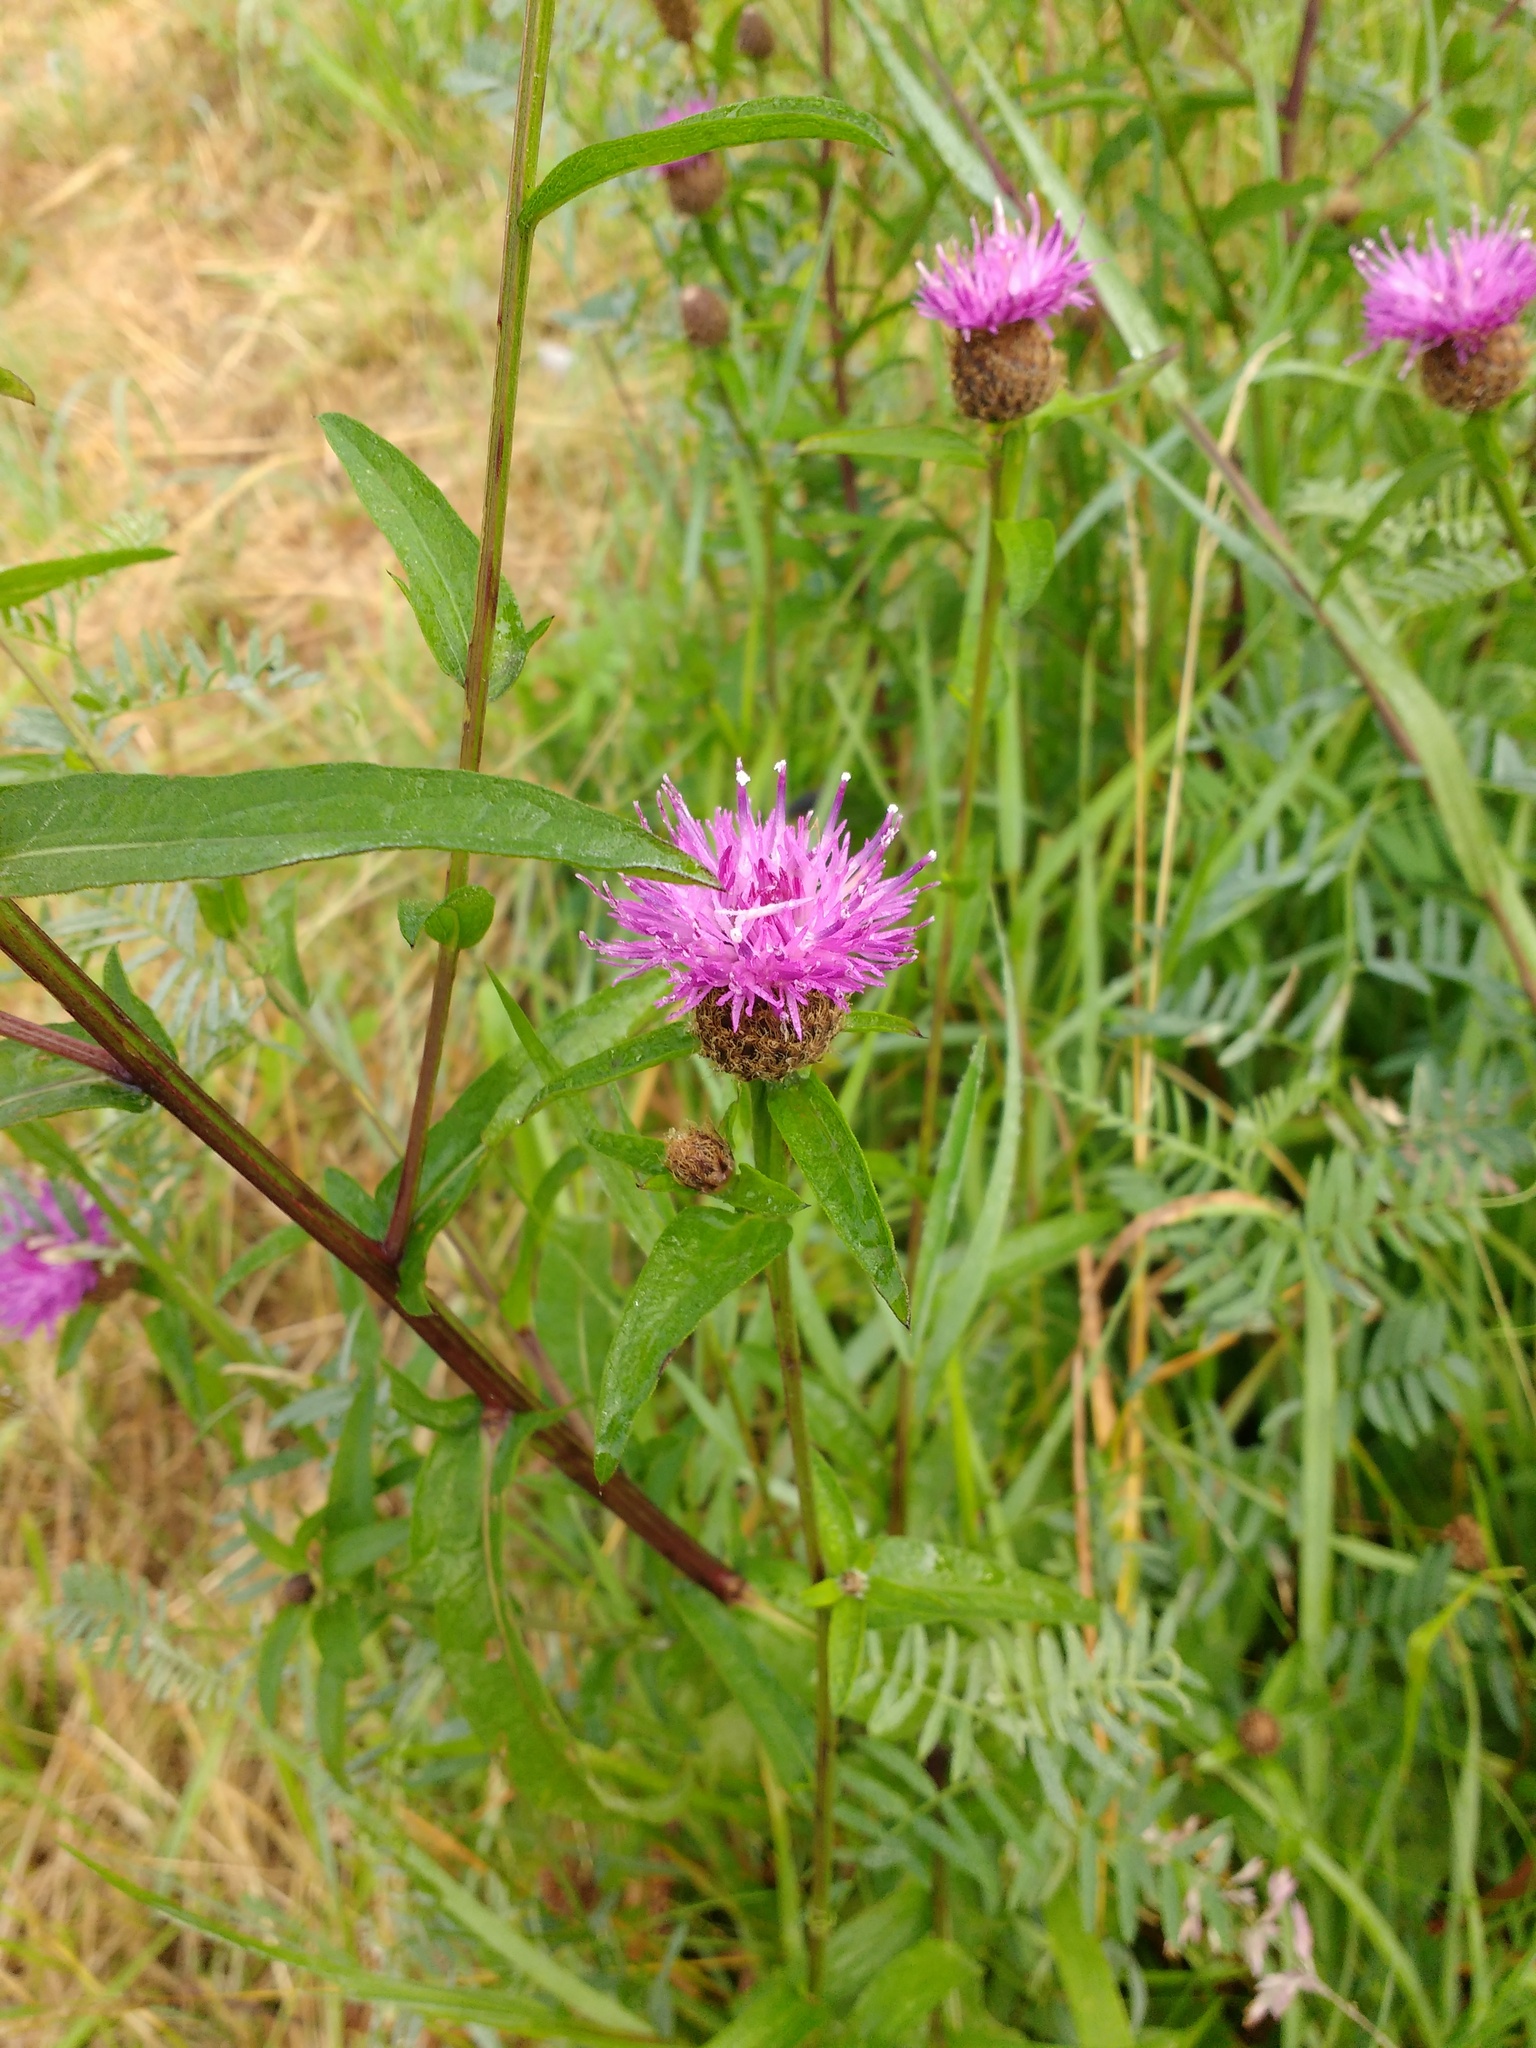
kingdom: Plantae
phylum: Tracheophyta
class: Magnoliopsida
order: Asterales
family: Asteraceae
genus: Centaurea
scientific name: Centaurea nigra
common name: Lesser knapweed
